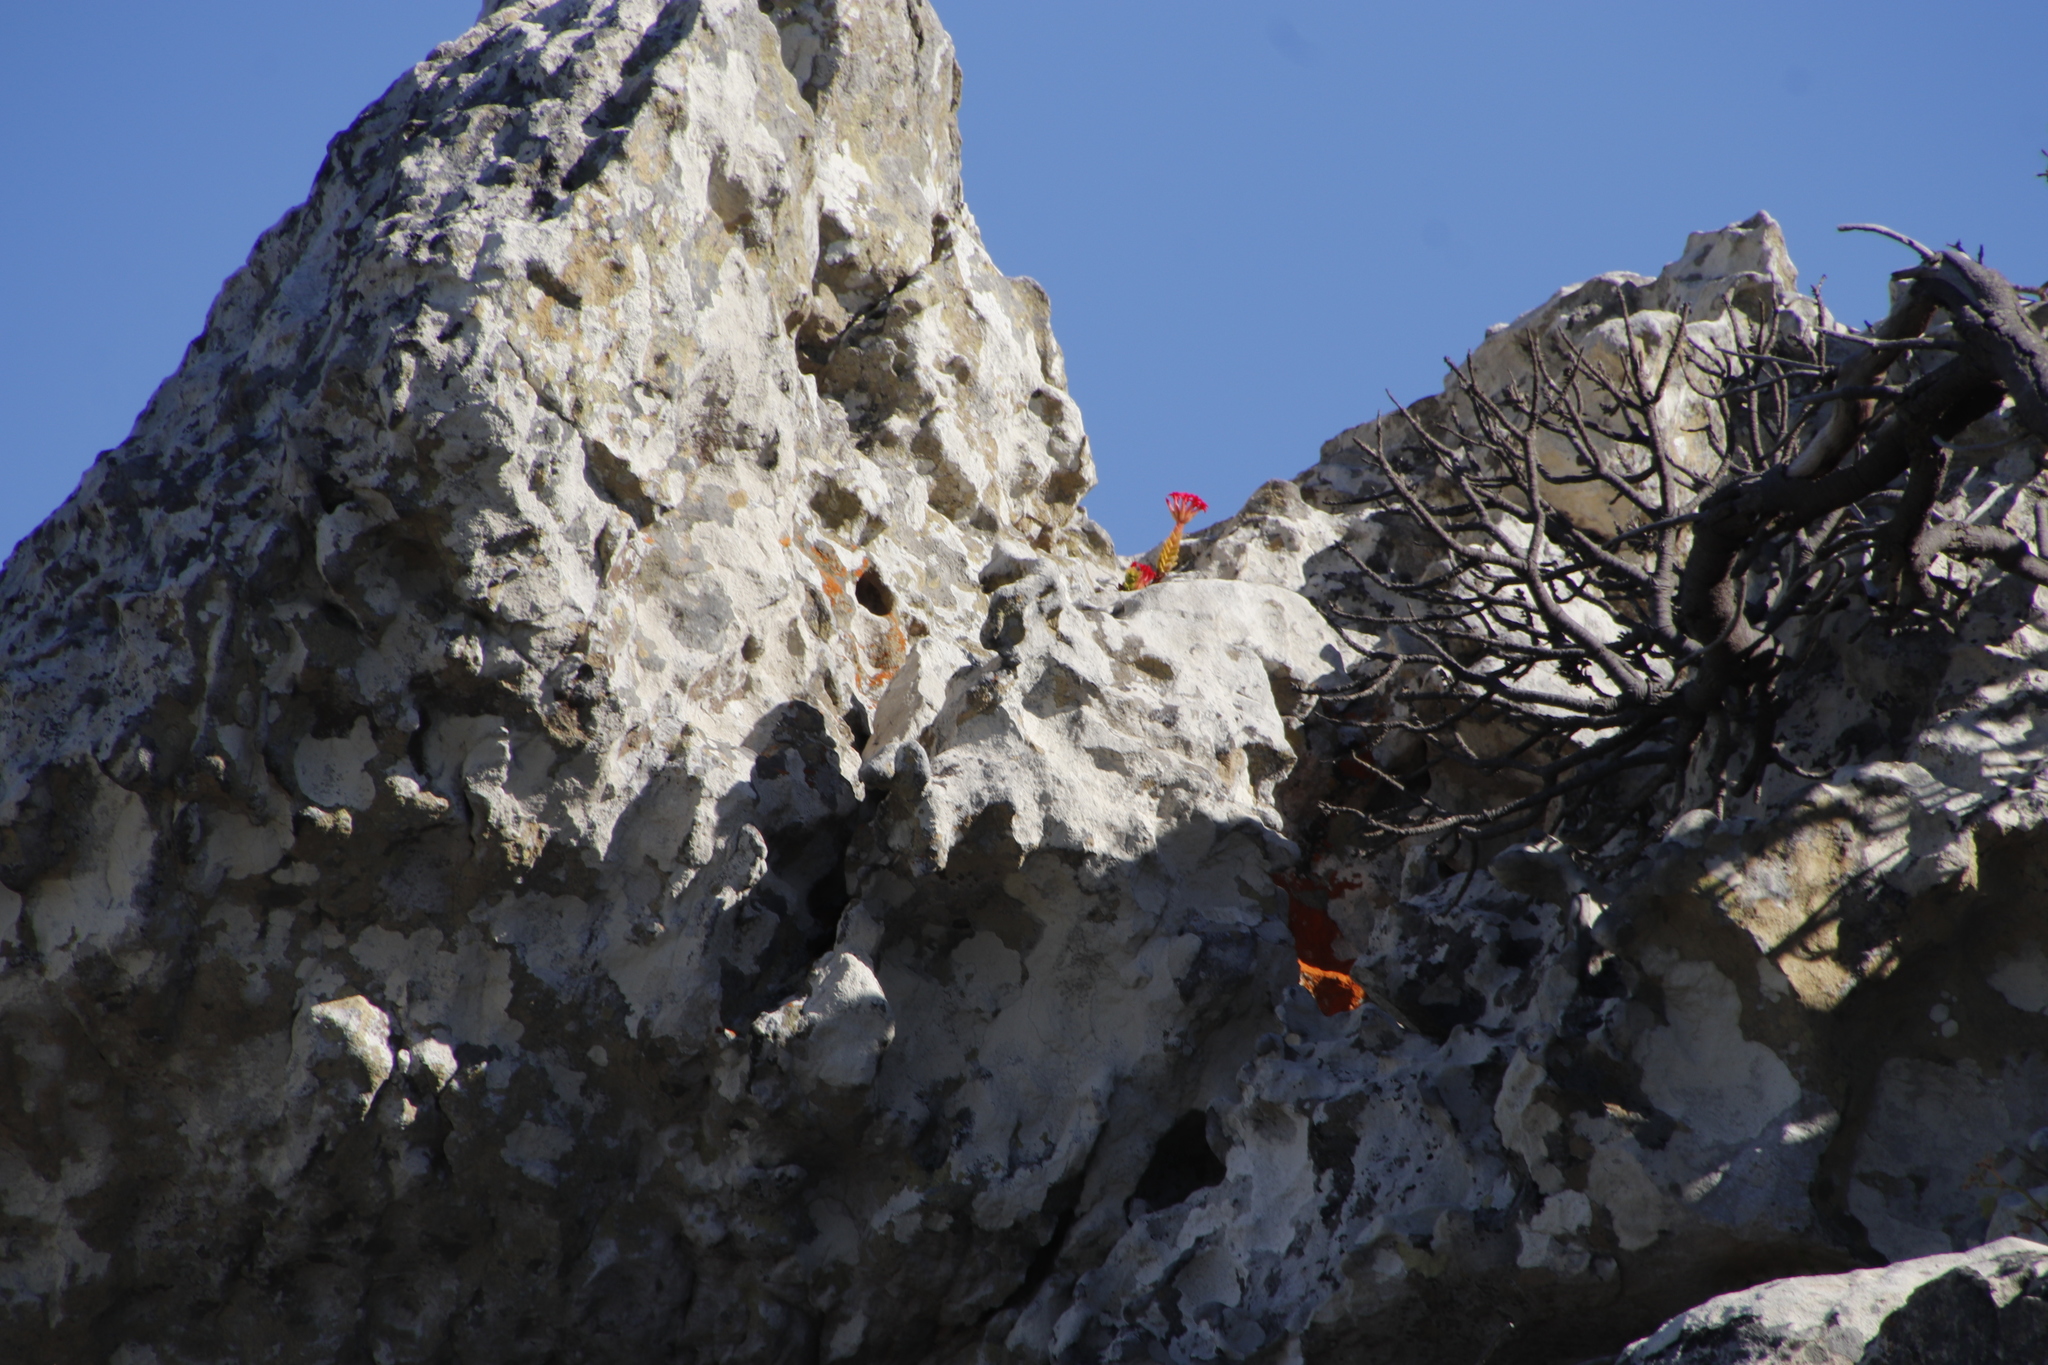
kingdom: Plantae
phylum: Tracheophyta
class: Magnoliopsida
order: Saxifragales
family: Crassulaceae
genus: Crassula
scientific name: Crassula coccinea
